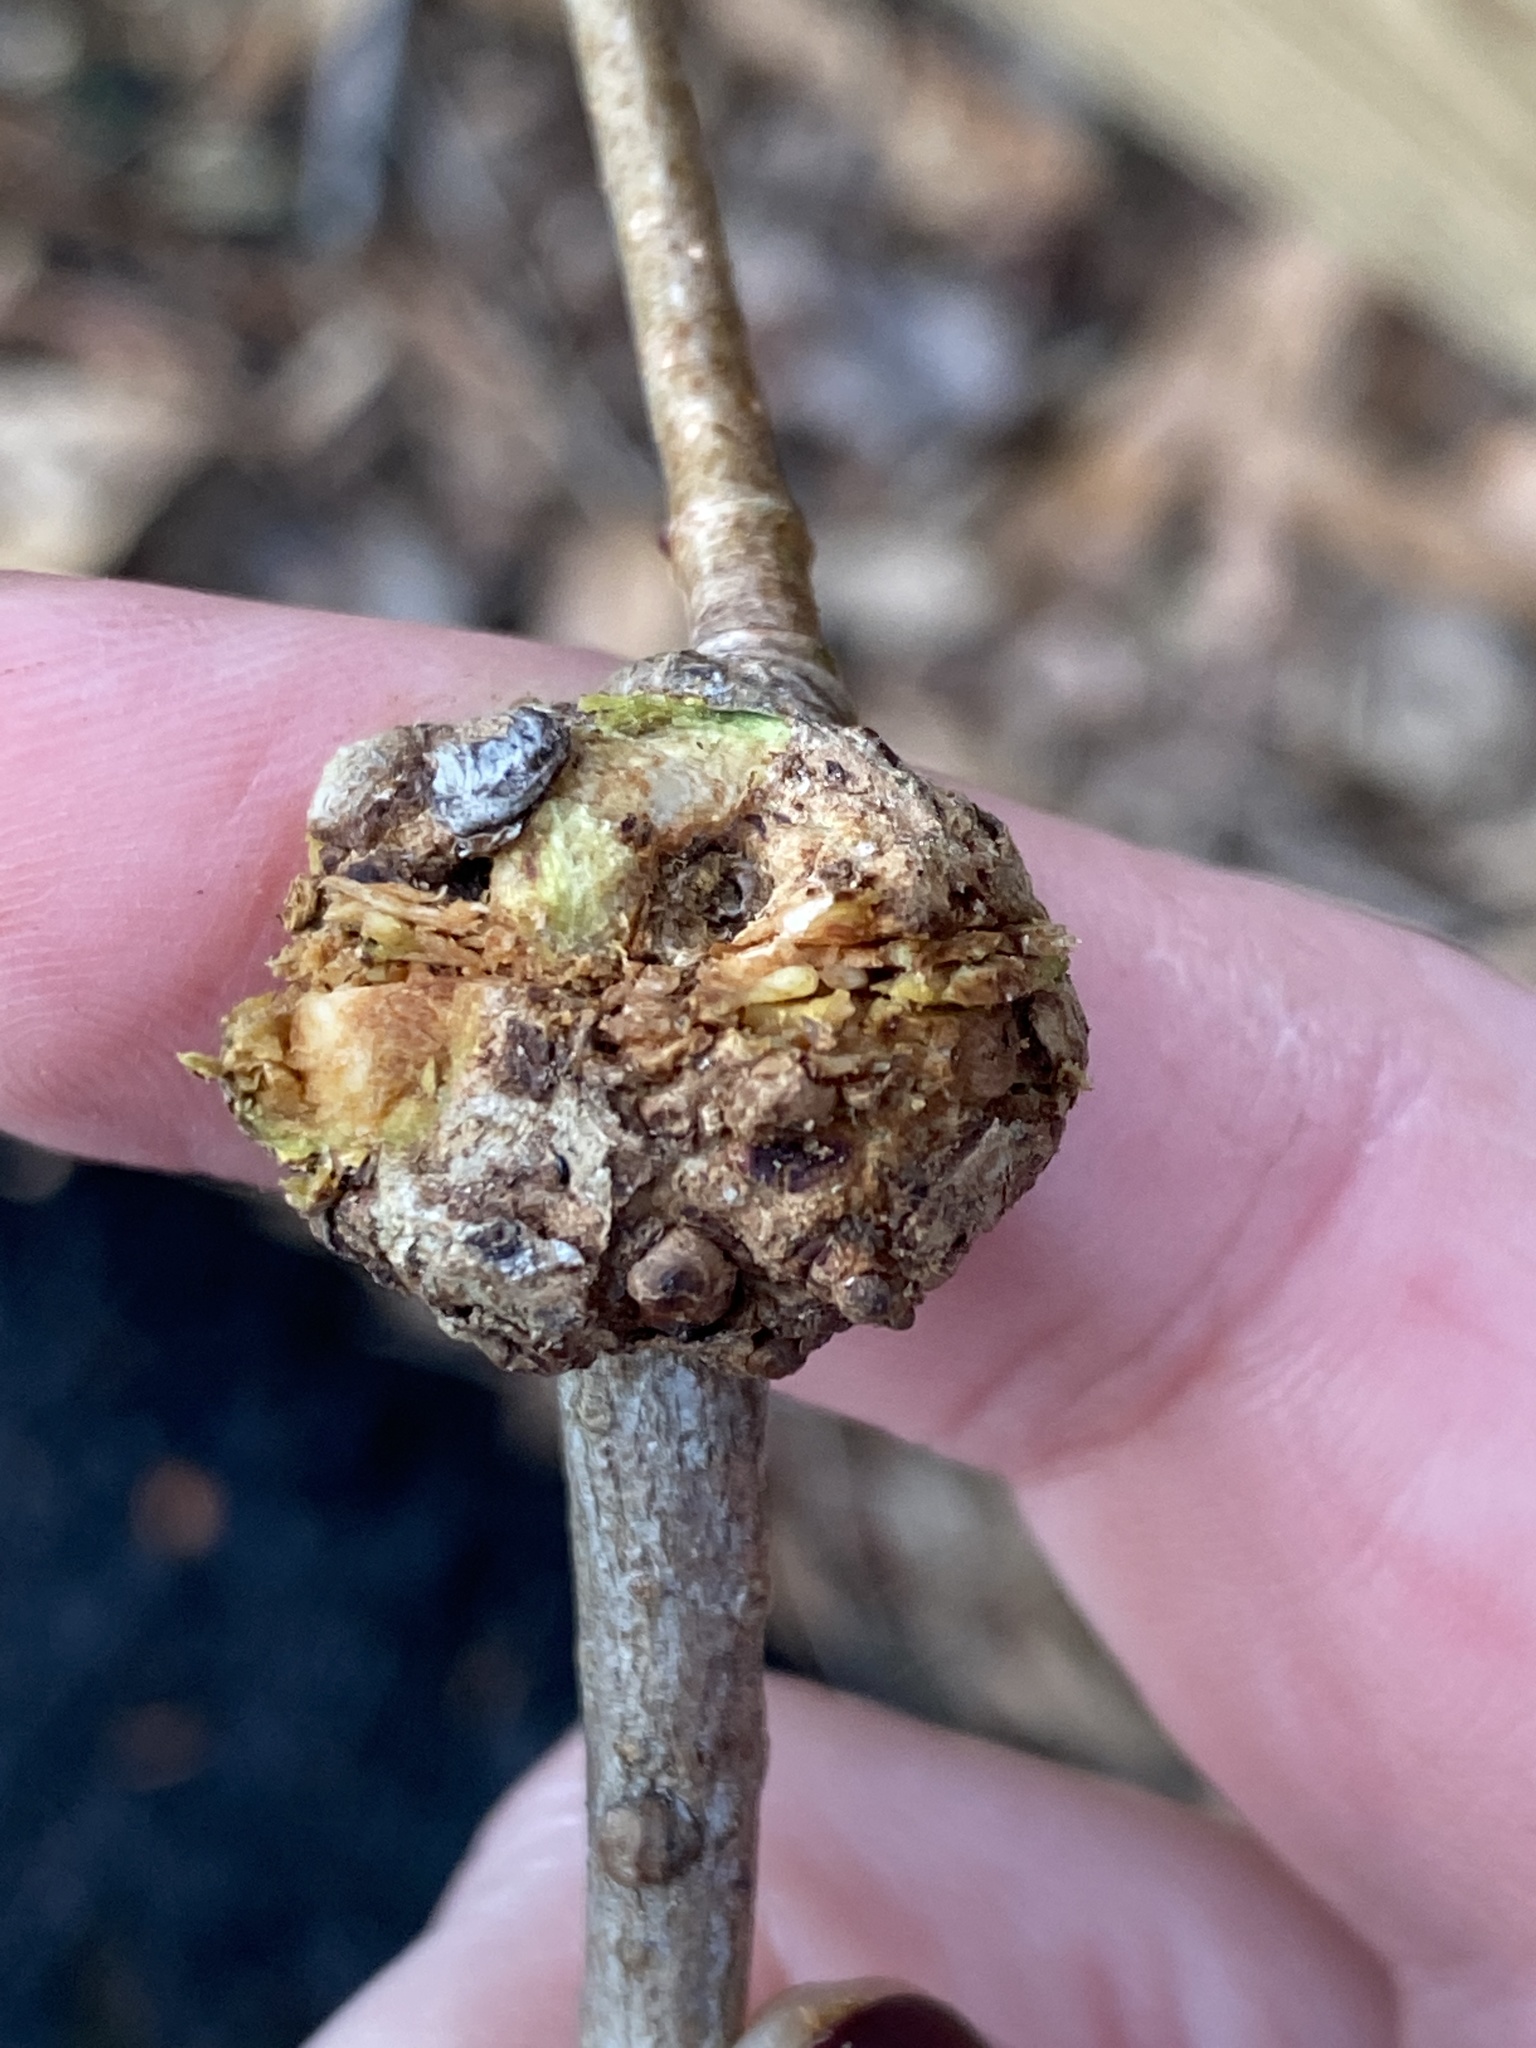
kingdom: Bacteria
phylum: Proteobacteria
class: Alphaproteobacteria
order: Rhizobiales
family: Rhizobiaceae
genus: Rhizobium
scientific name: Rhizobium Agrobacterium radiobacter
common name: Bacterial crown gall
